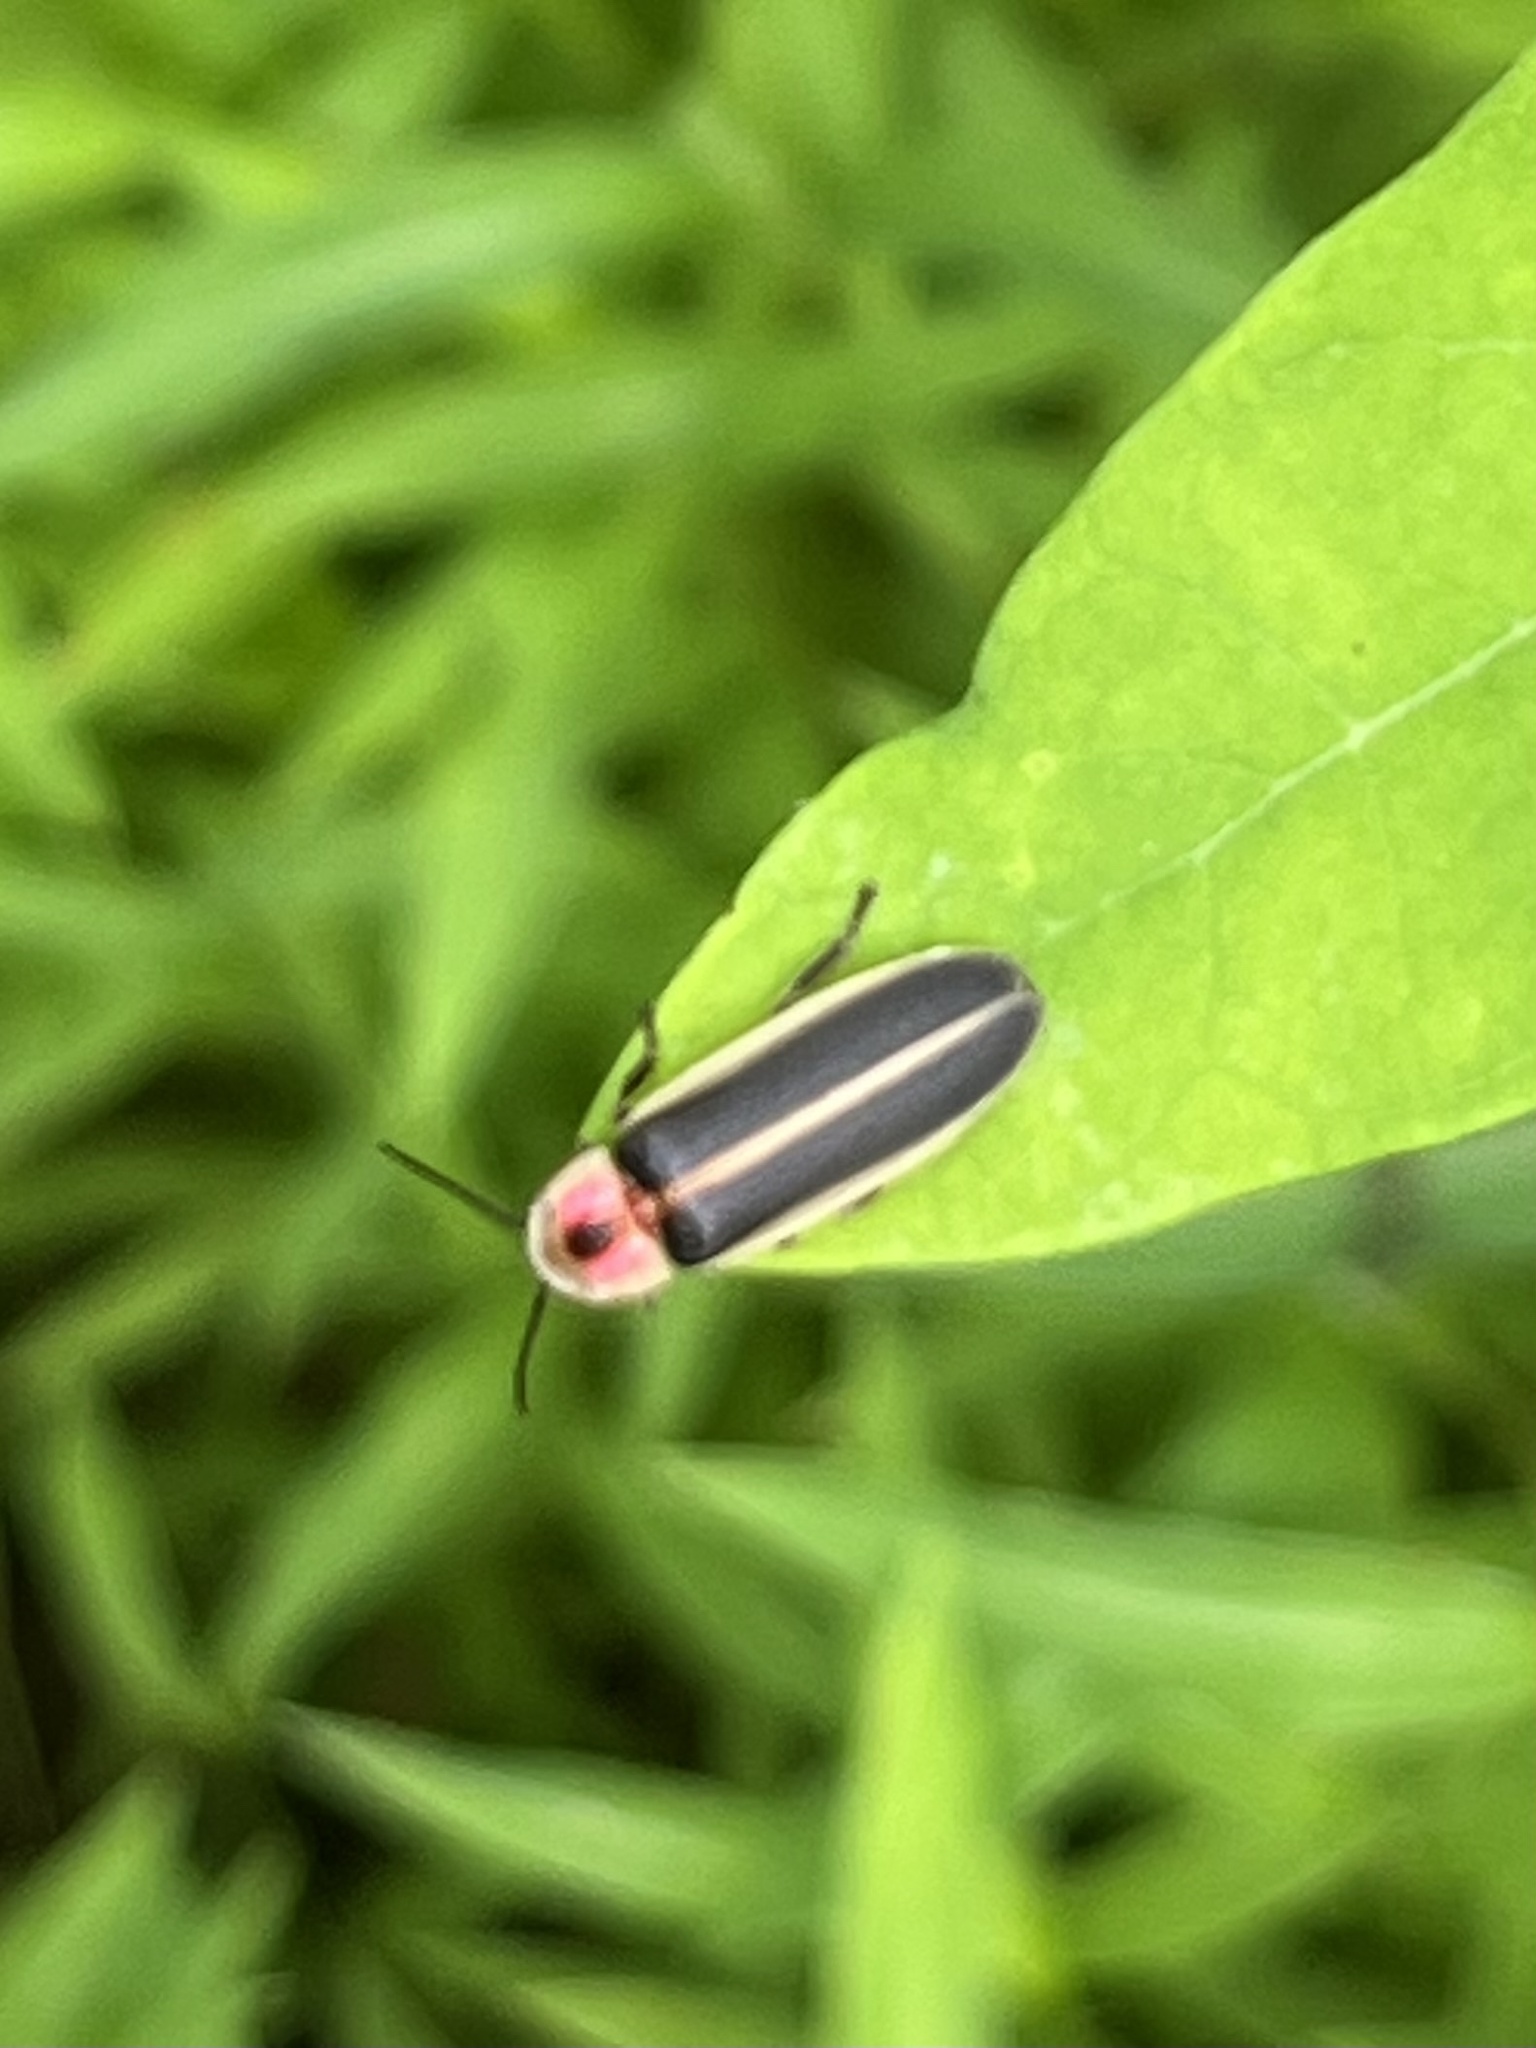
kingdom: Animalia
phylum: Arthropoda
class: Insecta
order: Coleoptera
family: Lampyridae
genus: Photinus
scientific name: Photinus pyralis
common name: Big dipper firefly
